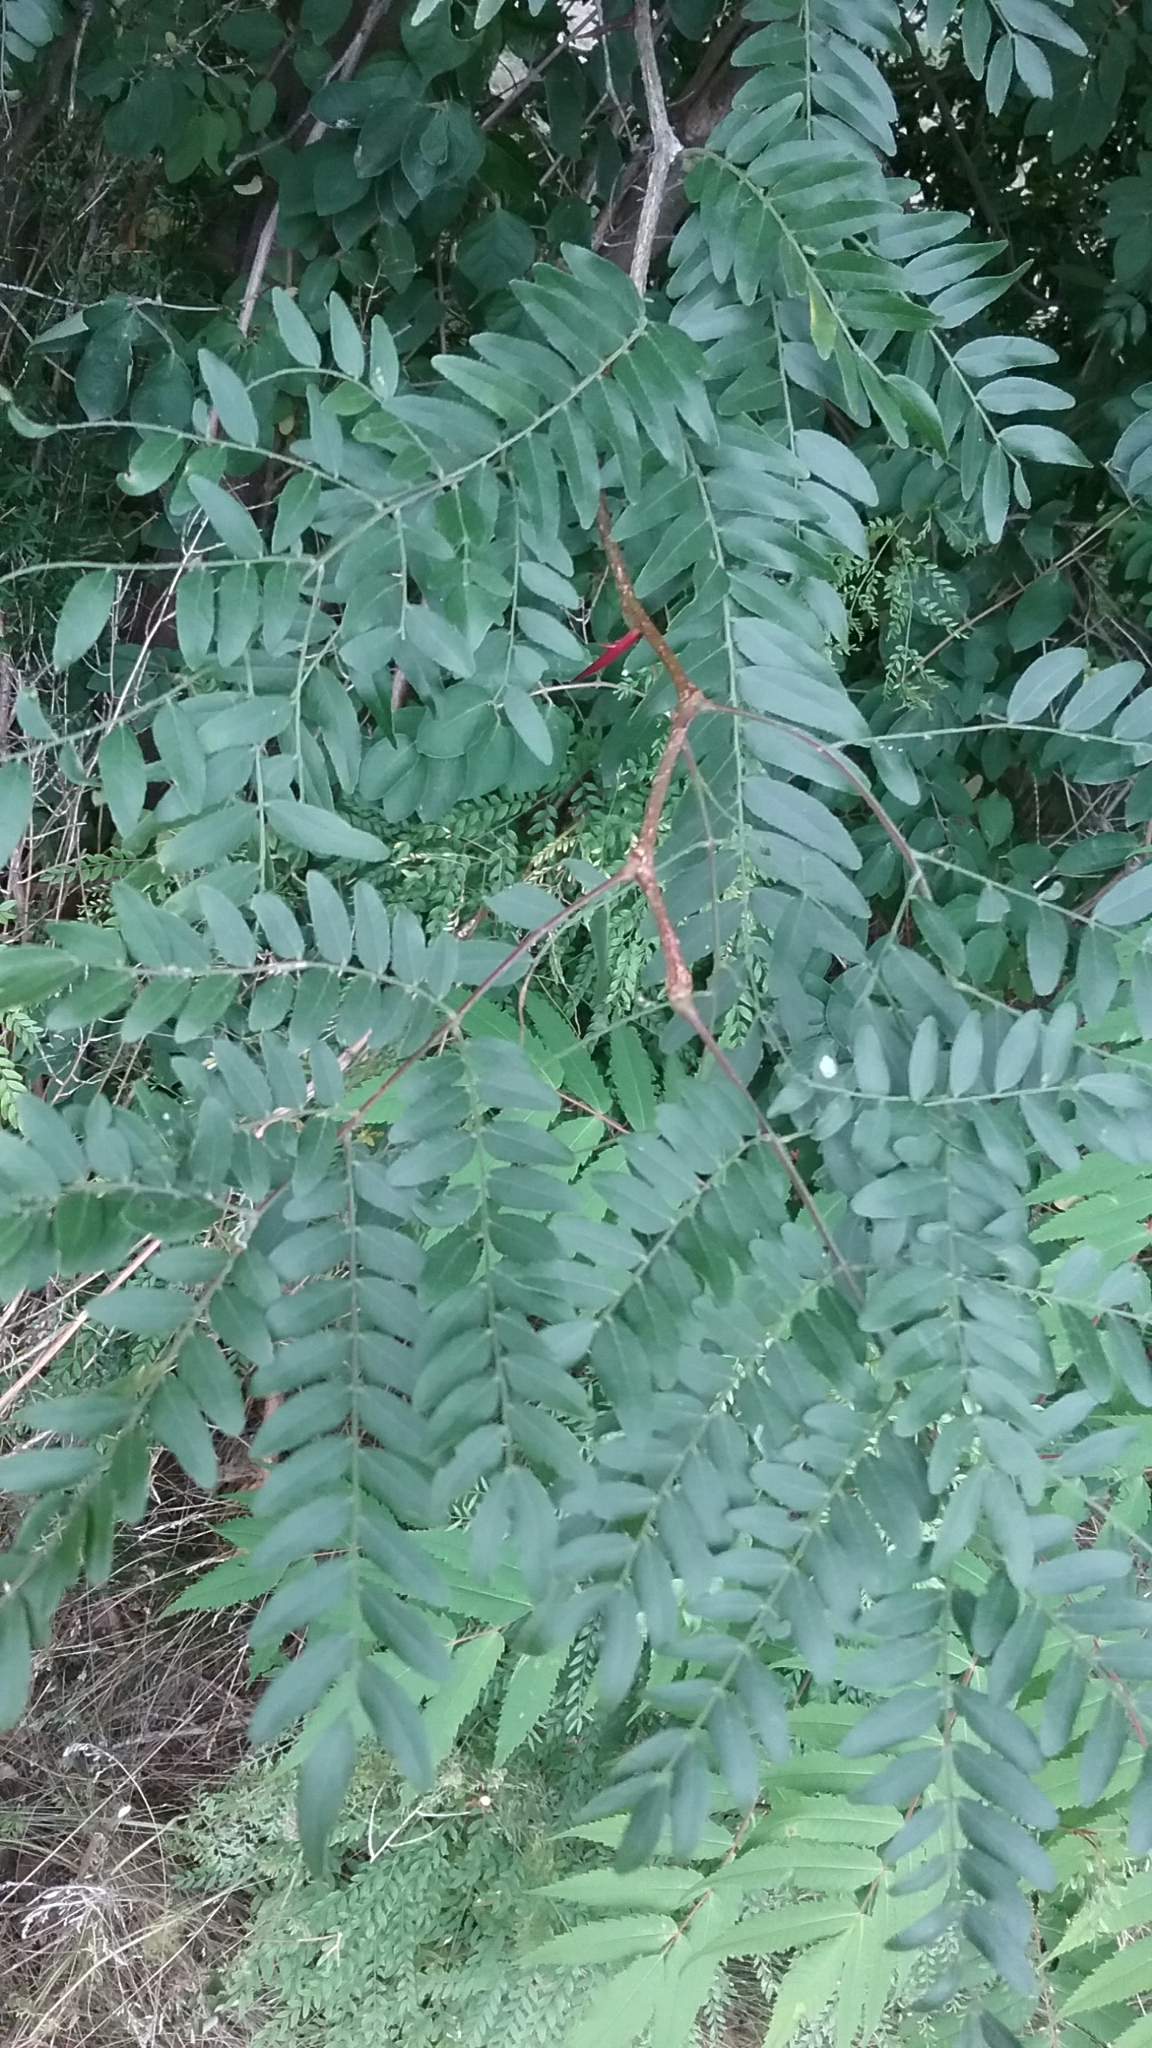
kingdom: Plantae
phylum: Tracheophyta
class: Magnoliopsida
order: Fabales
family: Fabaceae
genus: Gleditsia
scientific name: Gleditsia triacanthos
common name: Common honeylocust
